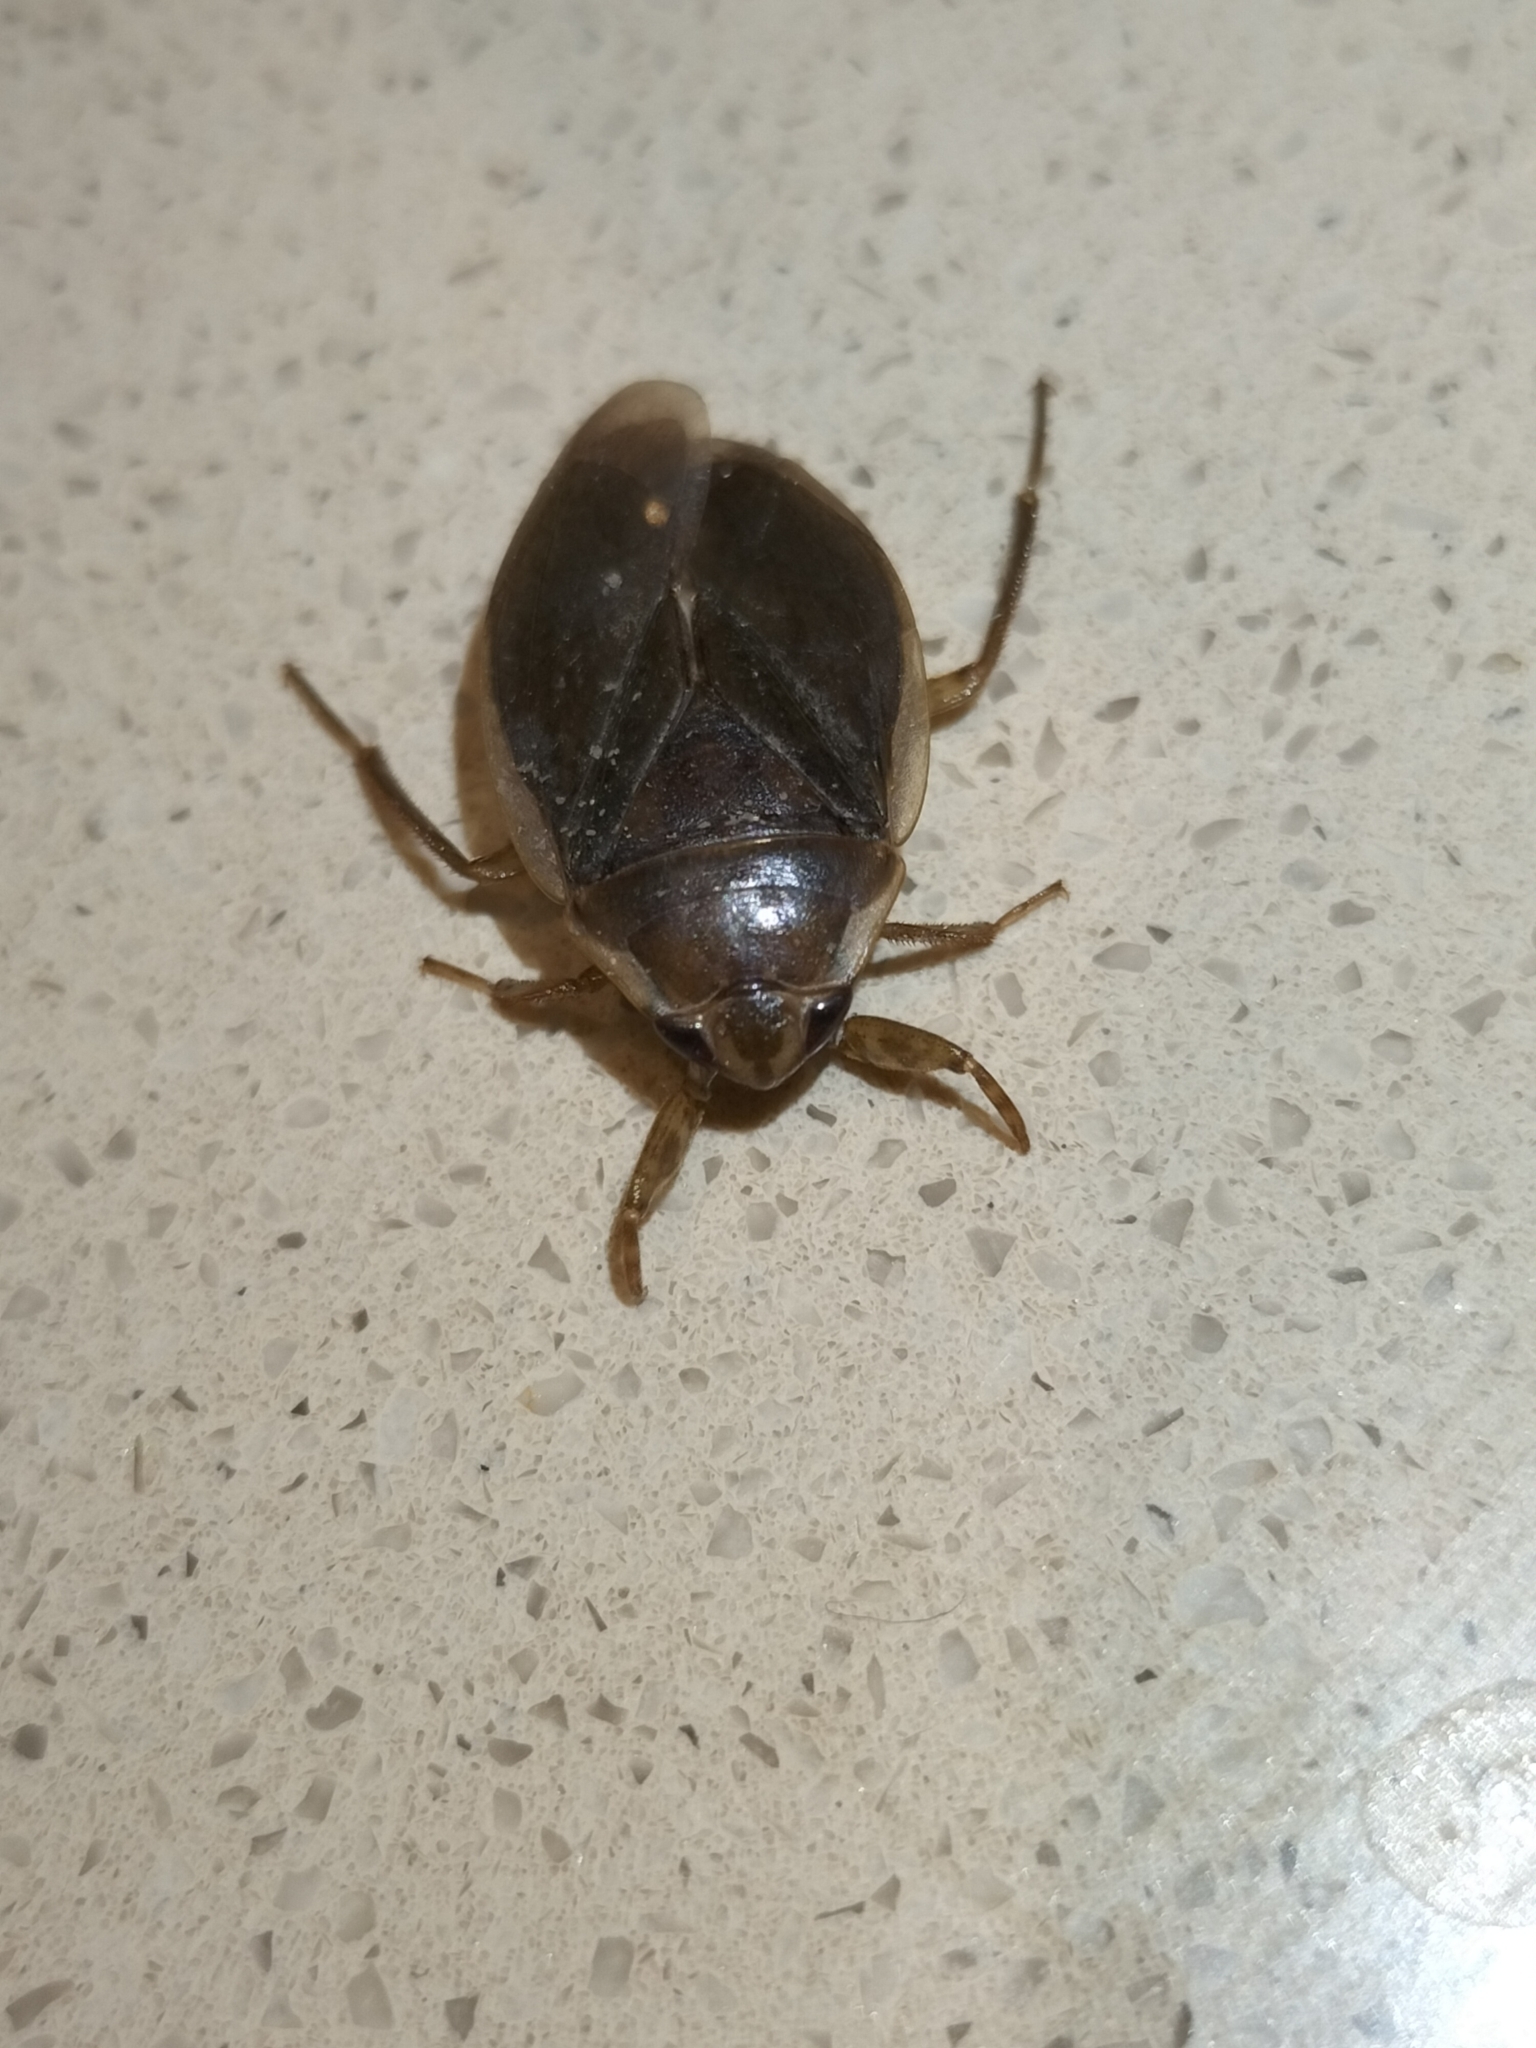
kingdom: Animalia
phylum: Arthropoda
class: Insecta
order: Hemiptera
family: Belostomatidae
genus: Diplonychus
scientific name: Diplonychus
